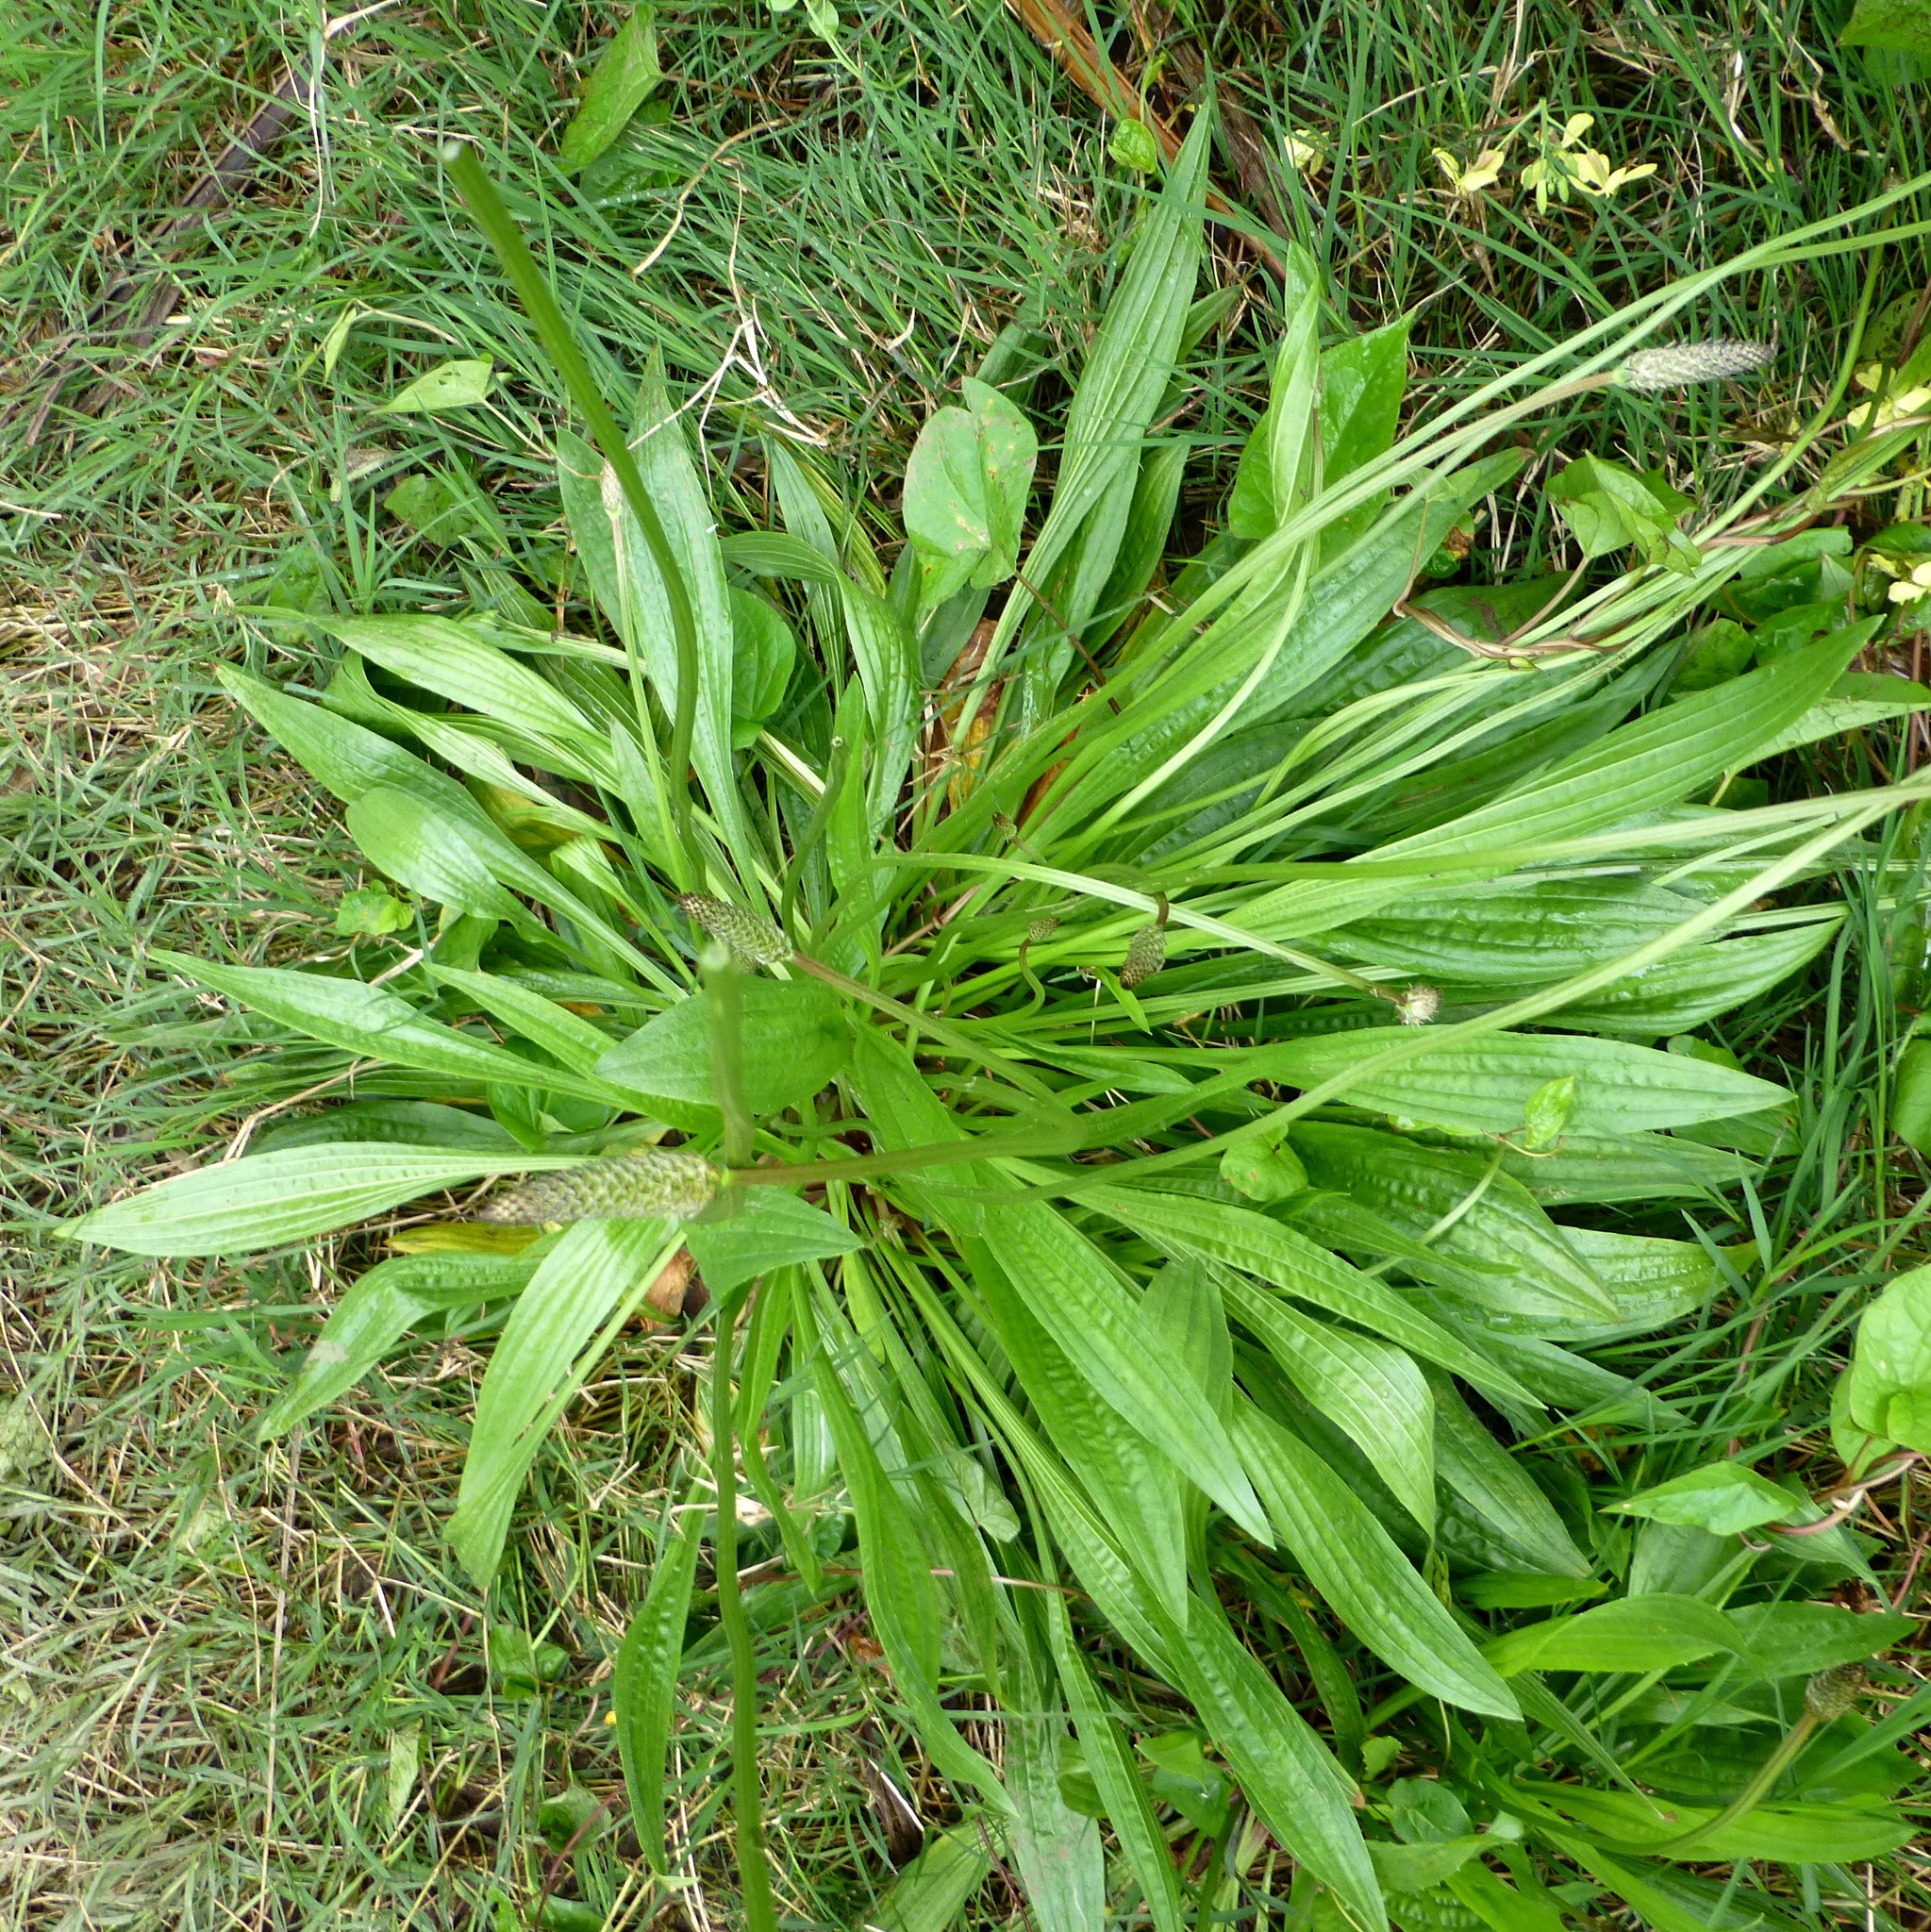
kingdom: Plantae
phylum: Tracheophyta
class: Magnoliopsida
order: Lamiales
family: Plantaginaceae
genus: Plantago
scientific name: Plantago lanceolata
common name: Ribwort plantain
